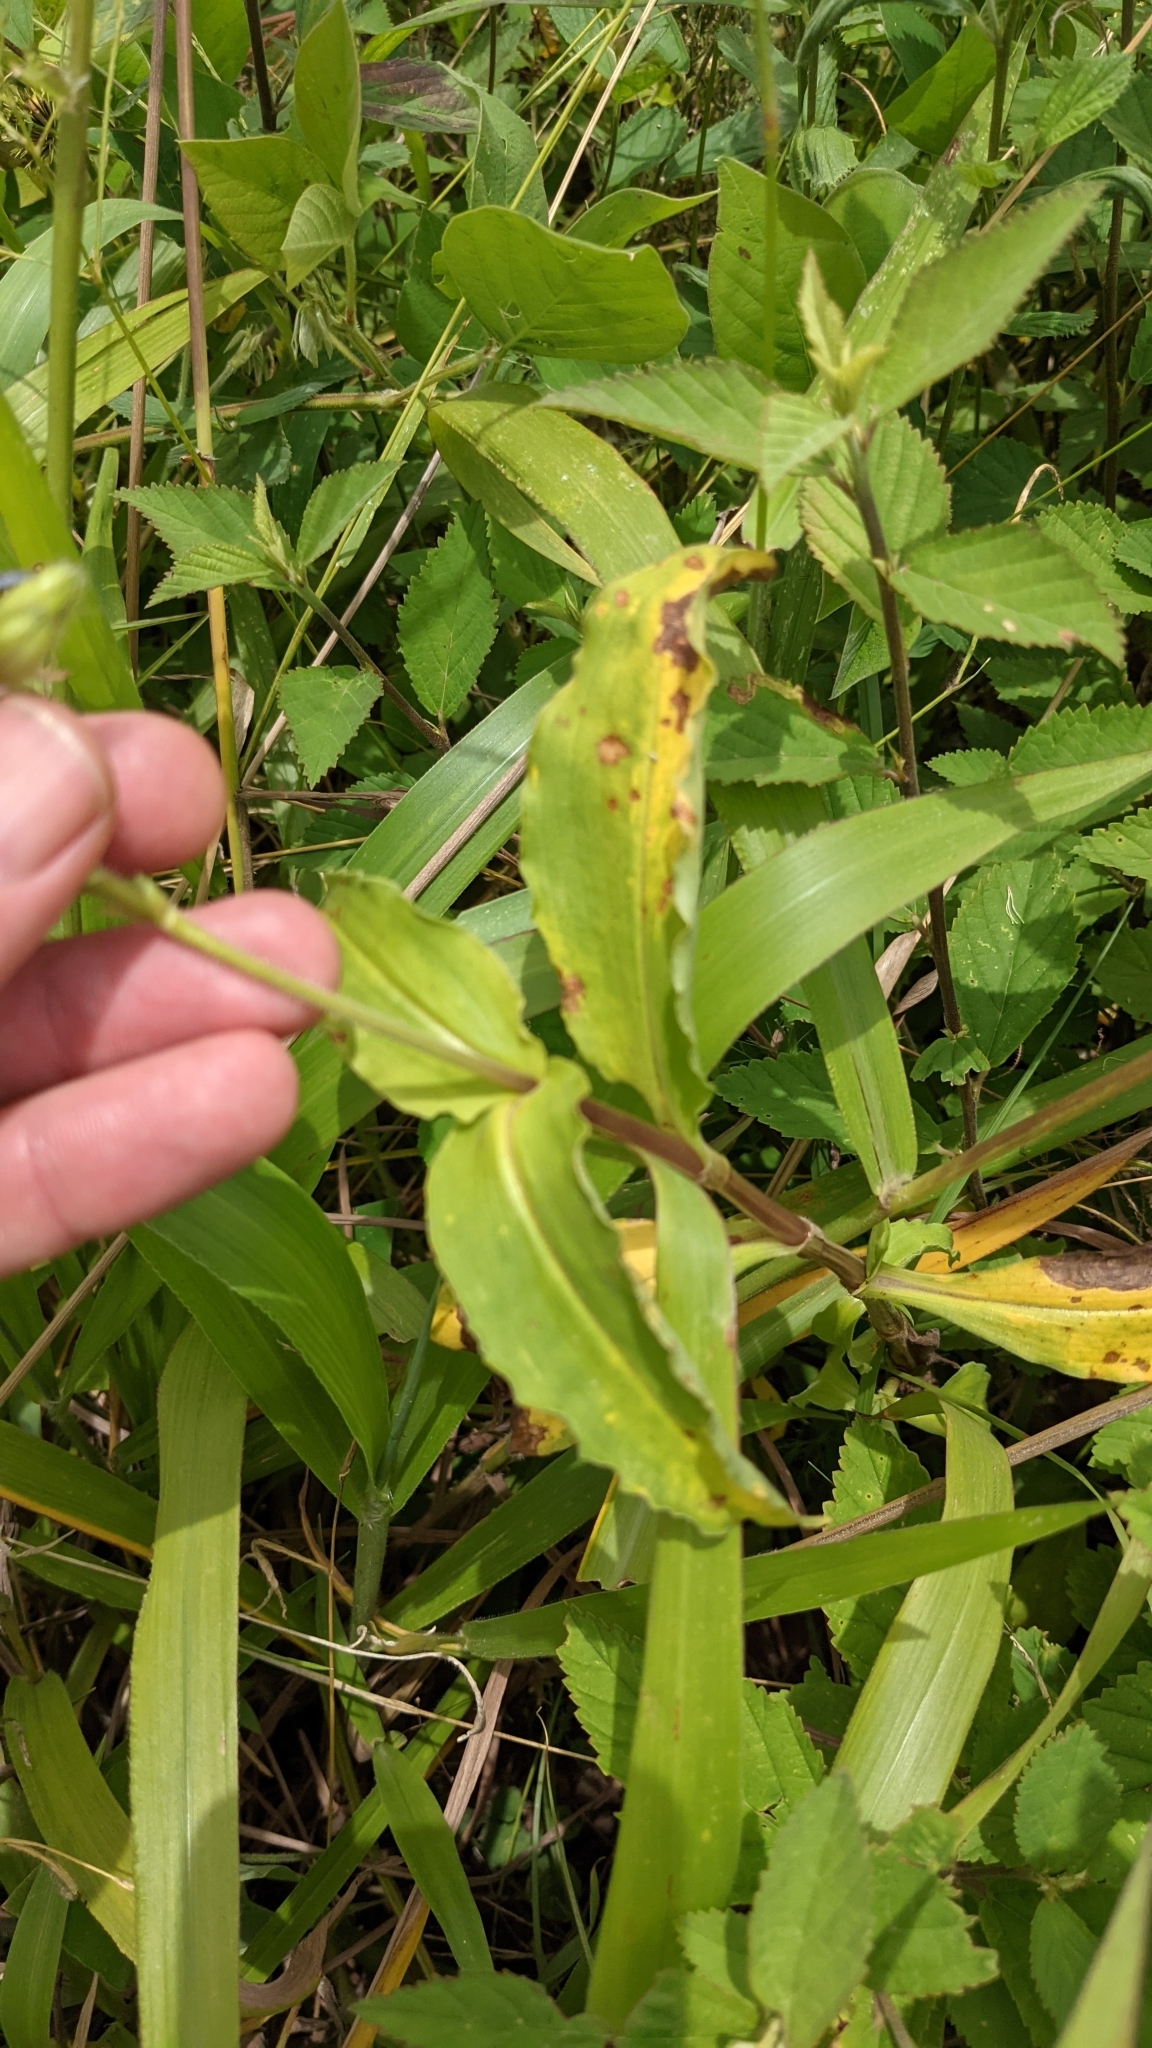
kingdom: Plantae
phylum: Tracheophyta
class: Liliopsida
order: Commelinales
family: Commelinaceae
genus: Tinantia
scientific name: Tinantia erecta
